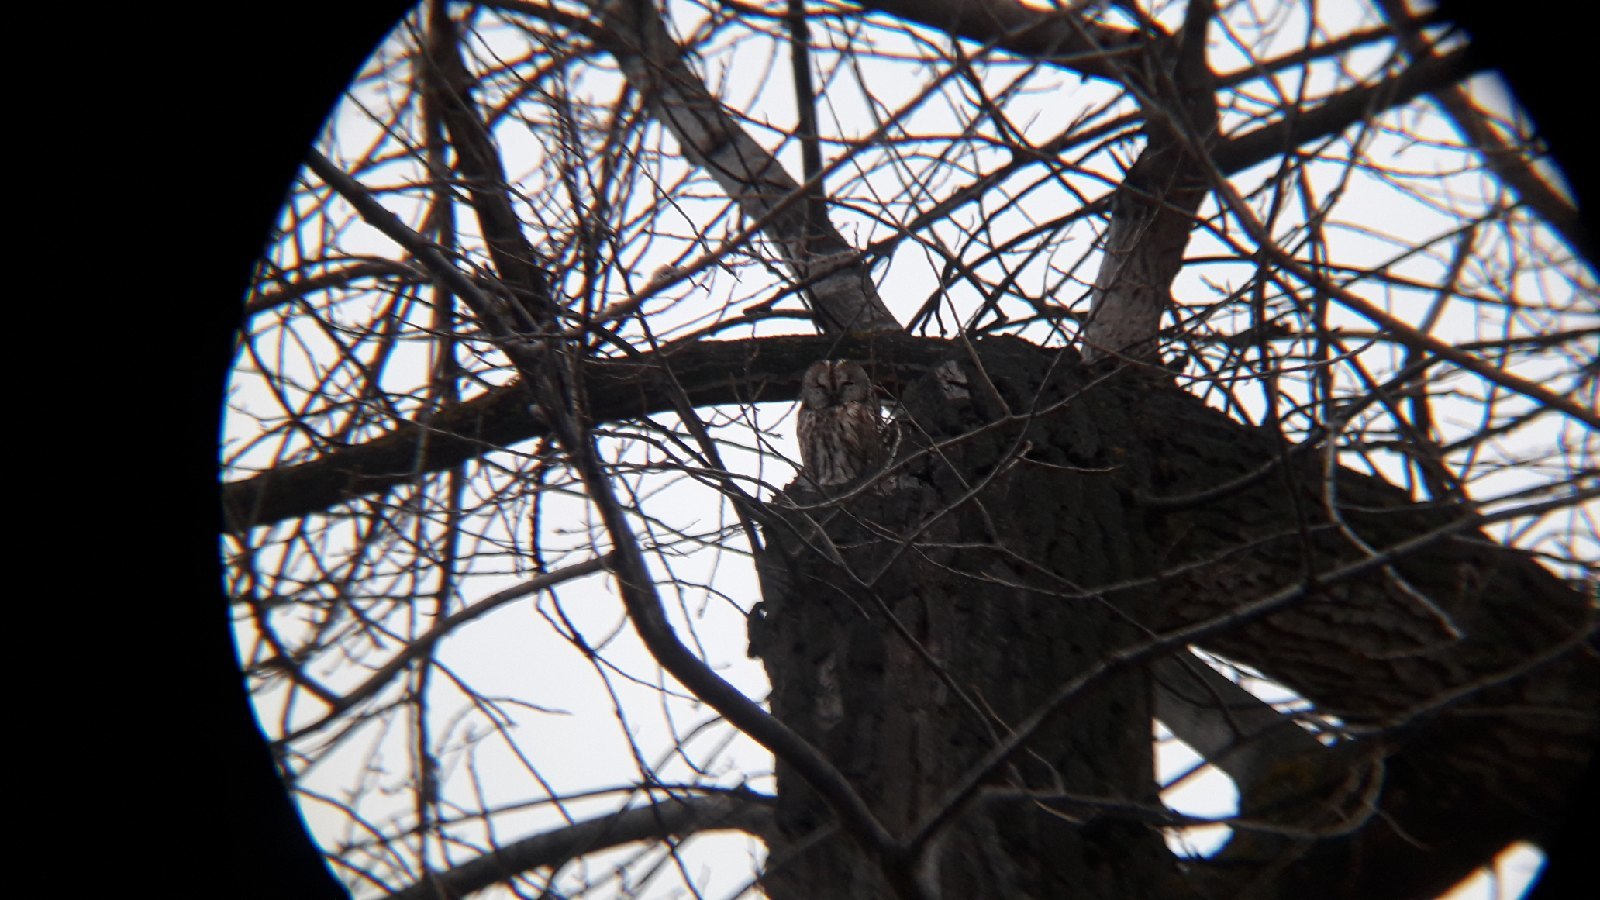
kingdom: Animalia
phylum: Chordata
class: Aves
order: Strigiformes
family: Strigidae
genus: Strix
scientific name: Strix aluco
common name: Tawny owl
